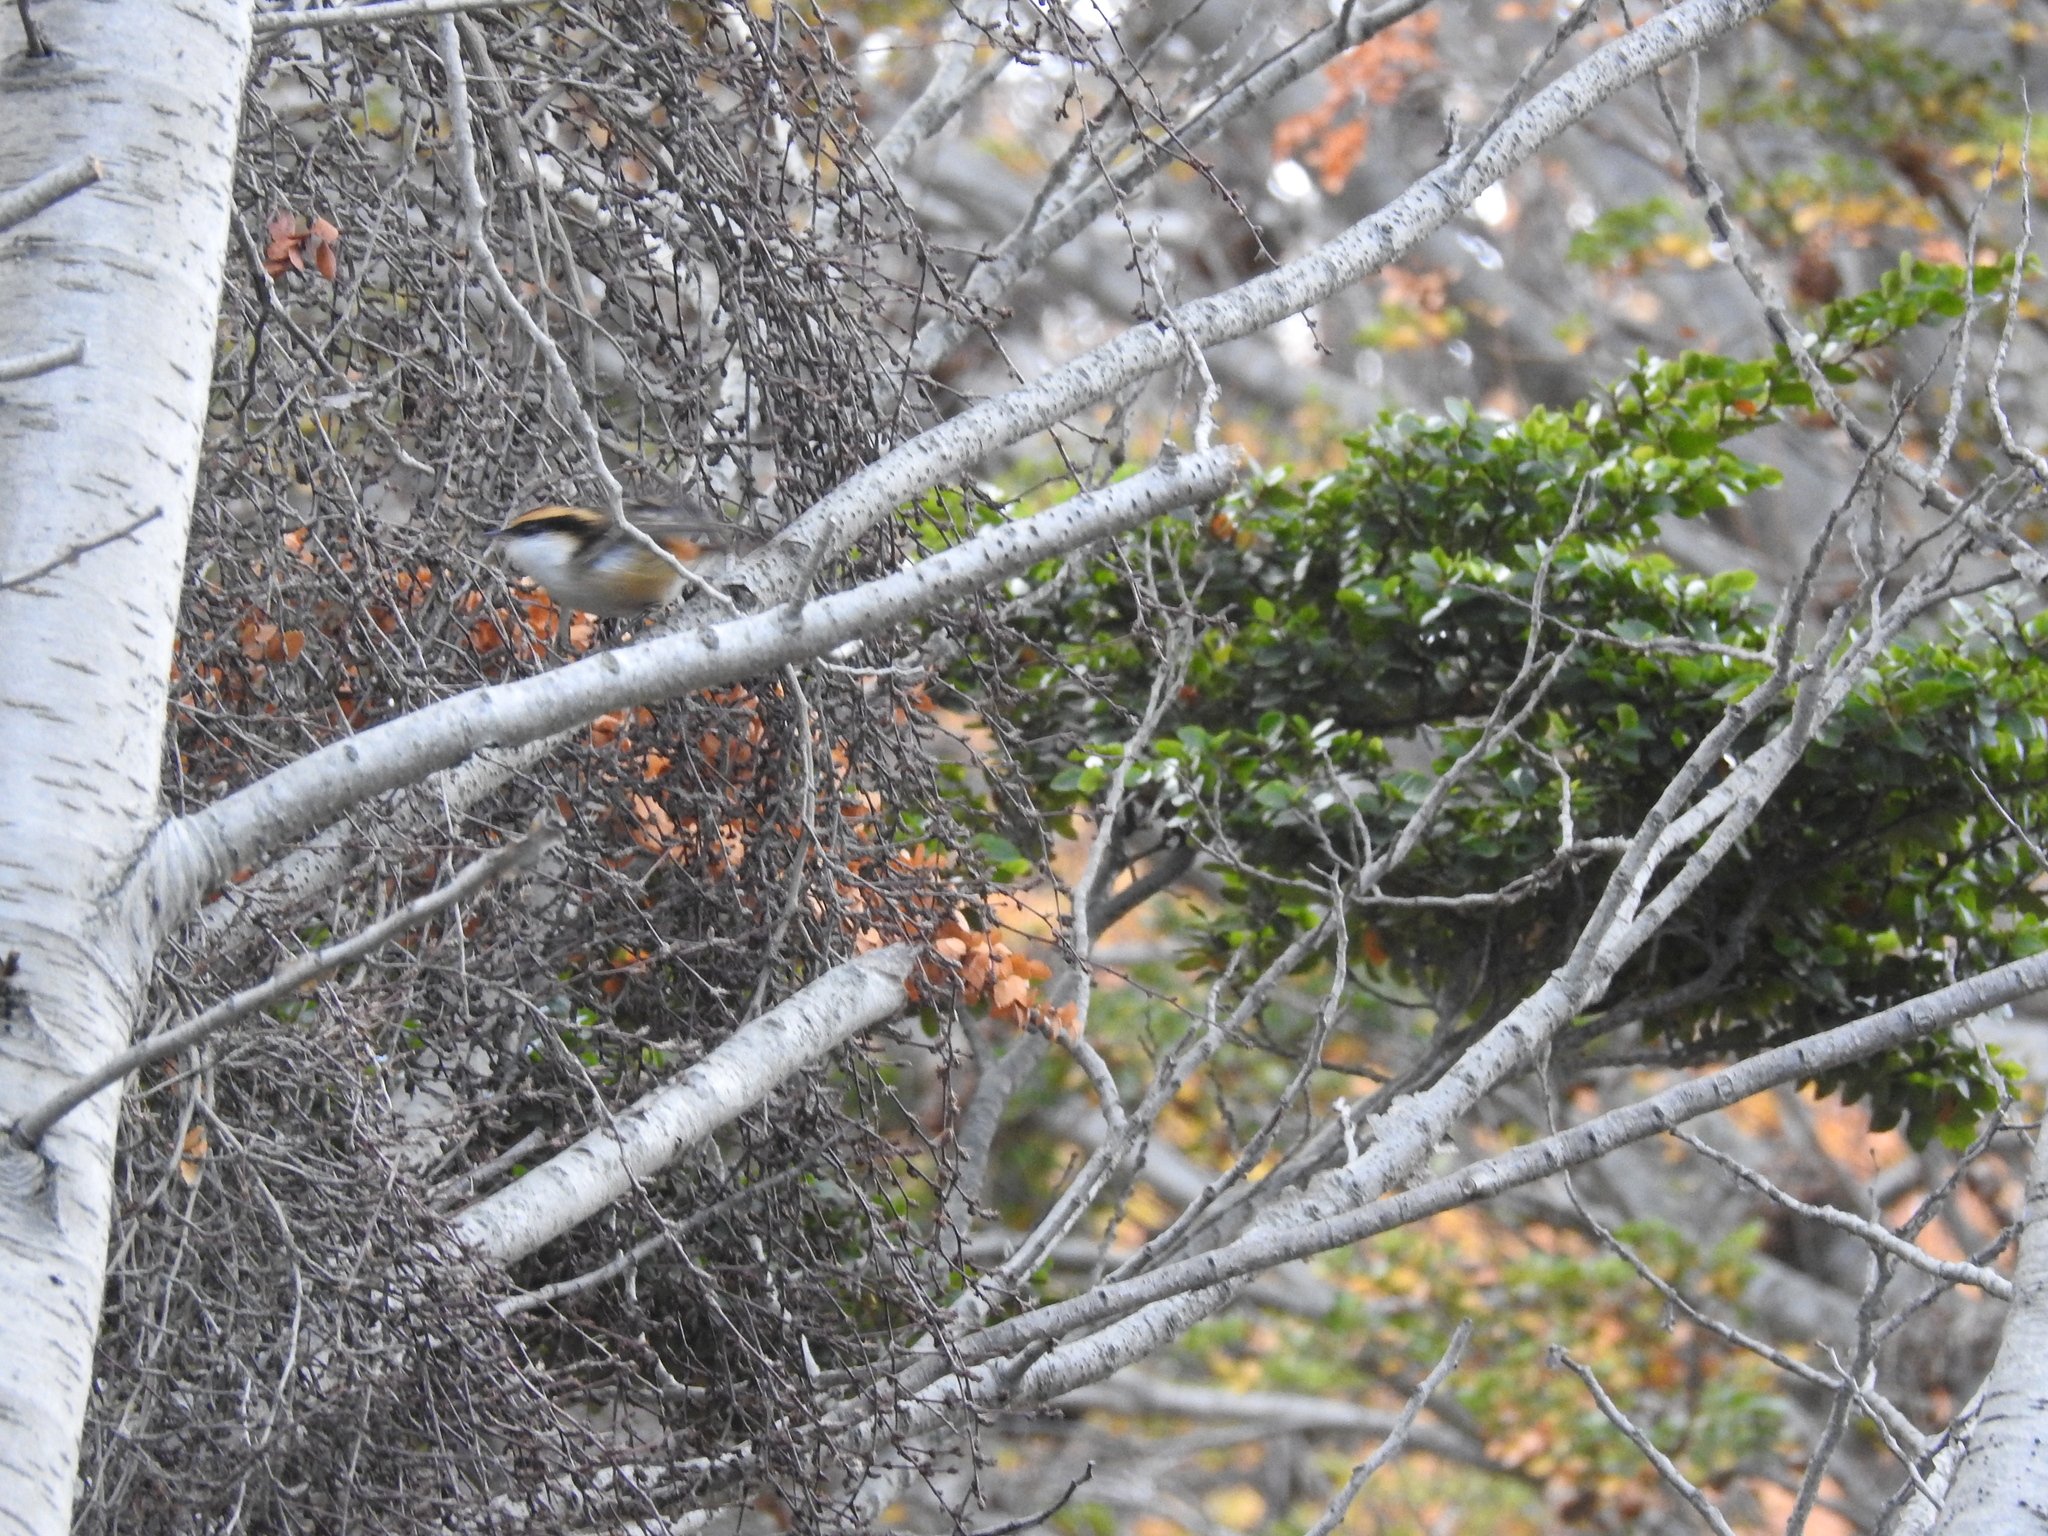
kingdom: Plantae
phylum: Tracheophyta
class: Magnoliopsida
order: Fagales
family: Nothofagaceae
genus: Nothofagus
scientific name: Nothofagus betuloides
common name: Magellan's beech
